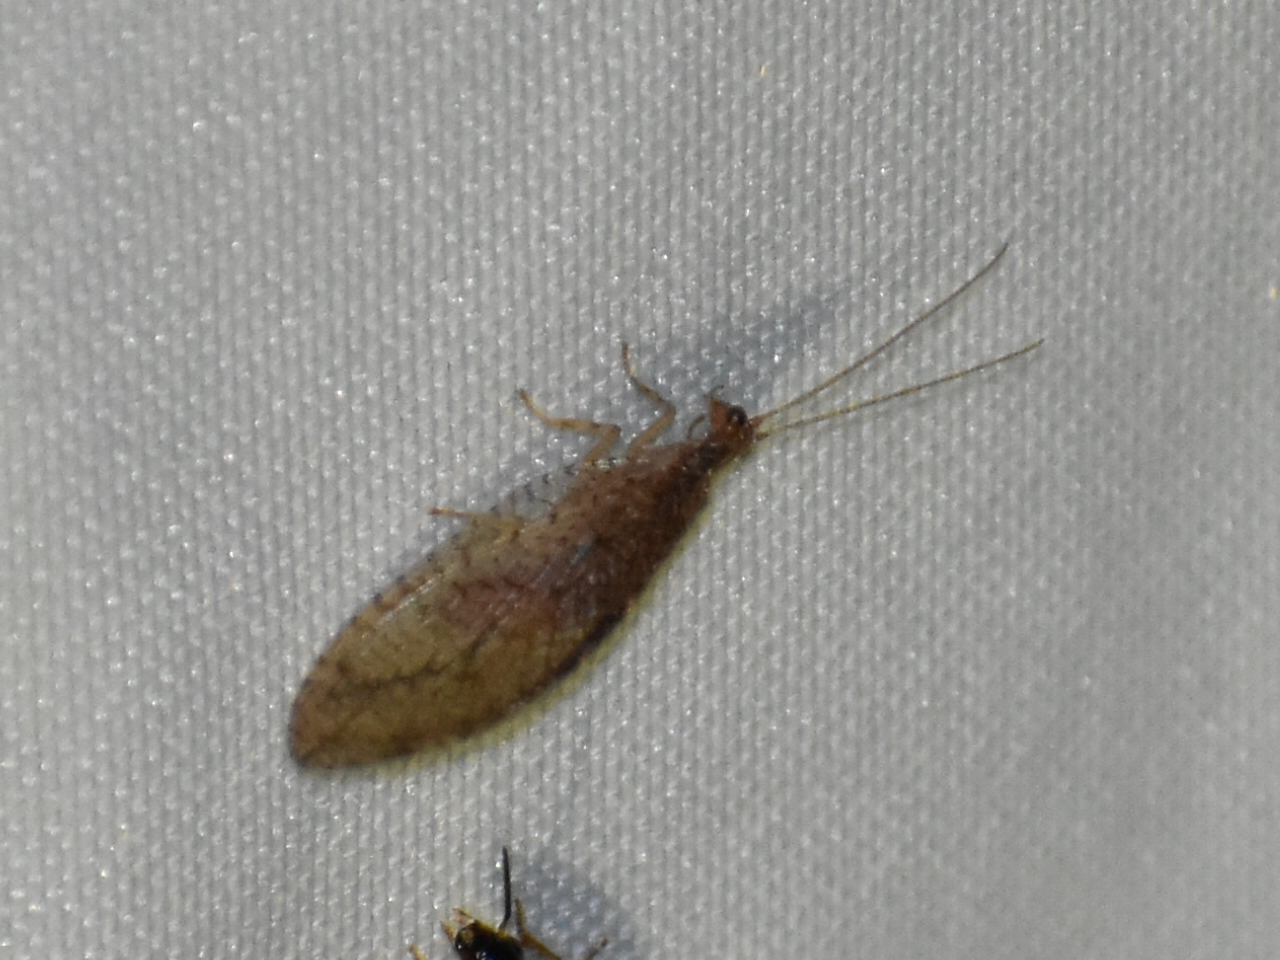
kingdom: Animalia
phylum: Arthropoda
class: Insecta
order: Neuroptera
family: Hemerobiidae
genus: Micromus
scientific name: Micromus posticus
